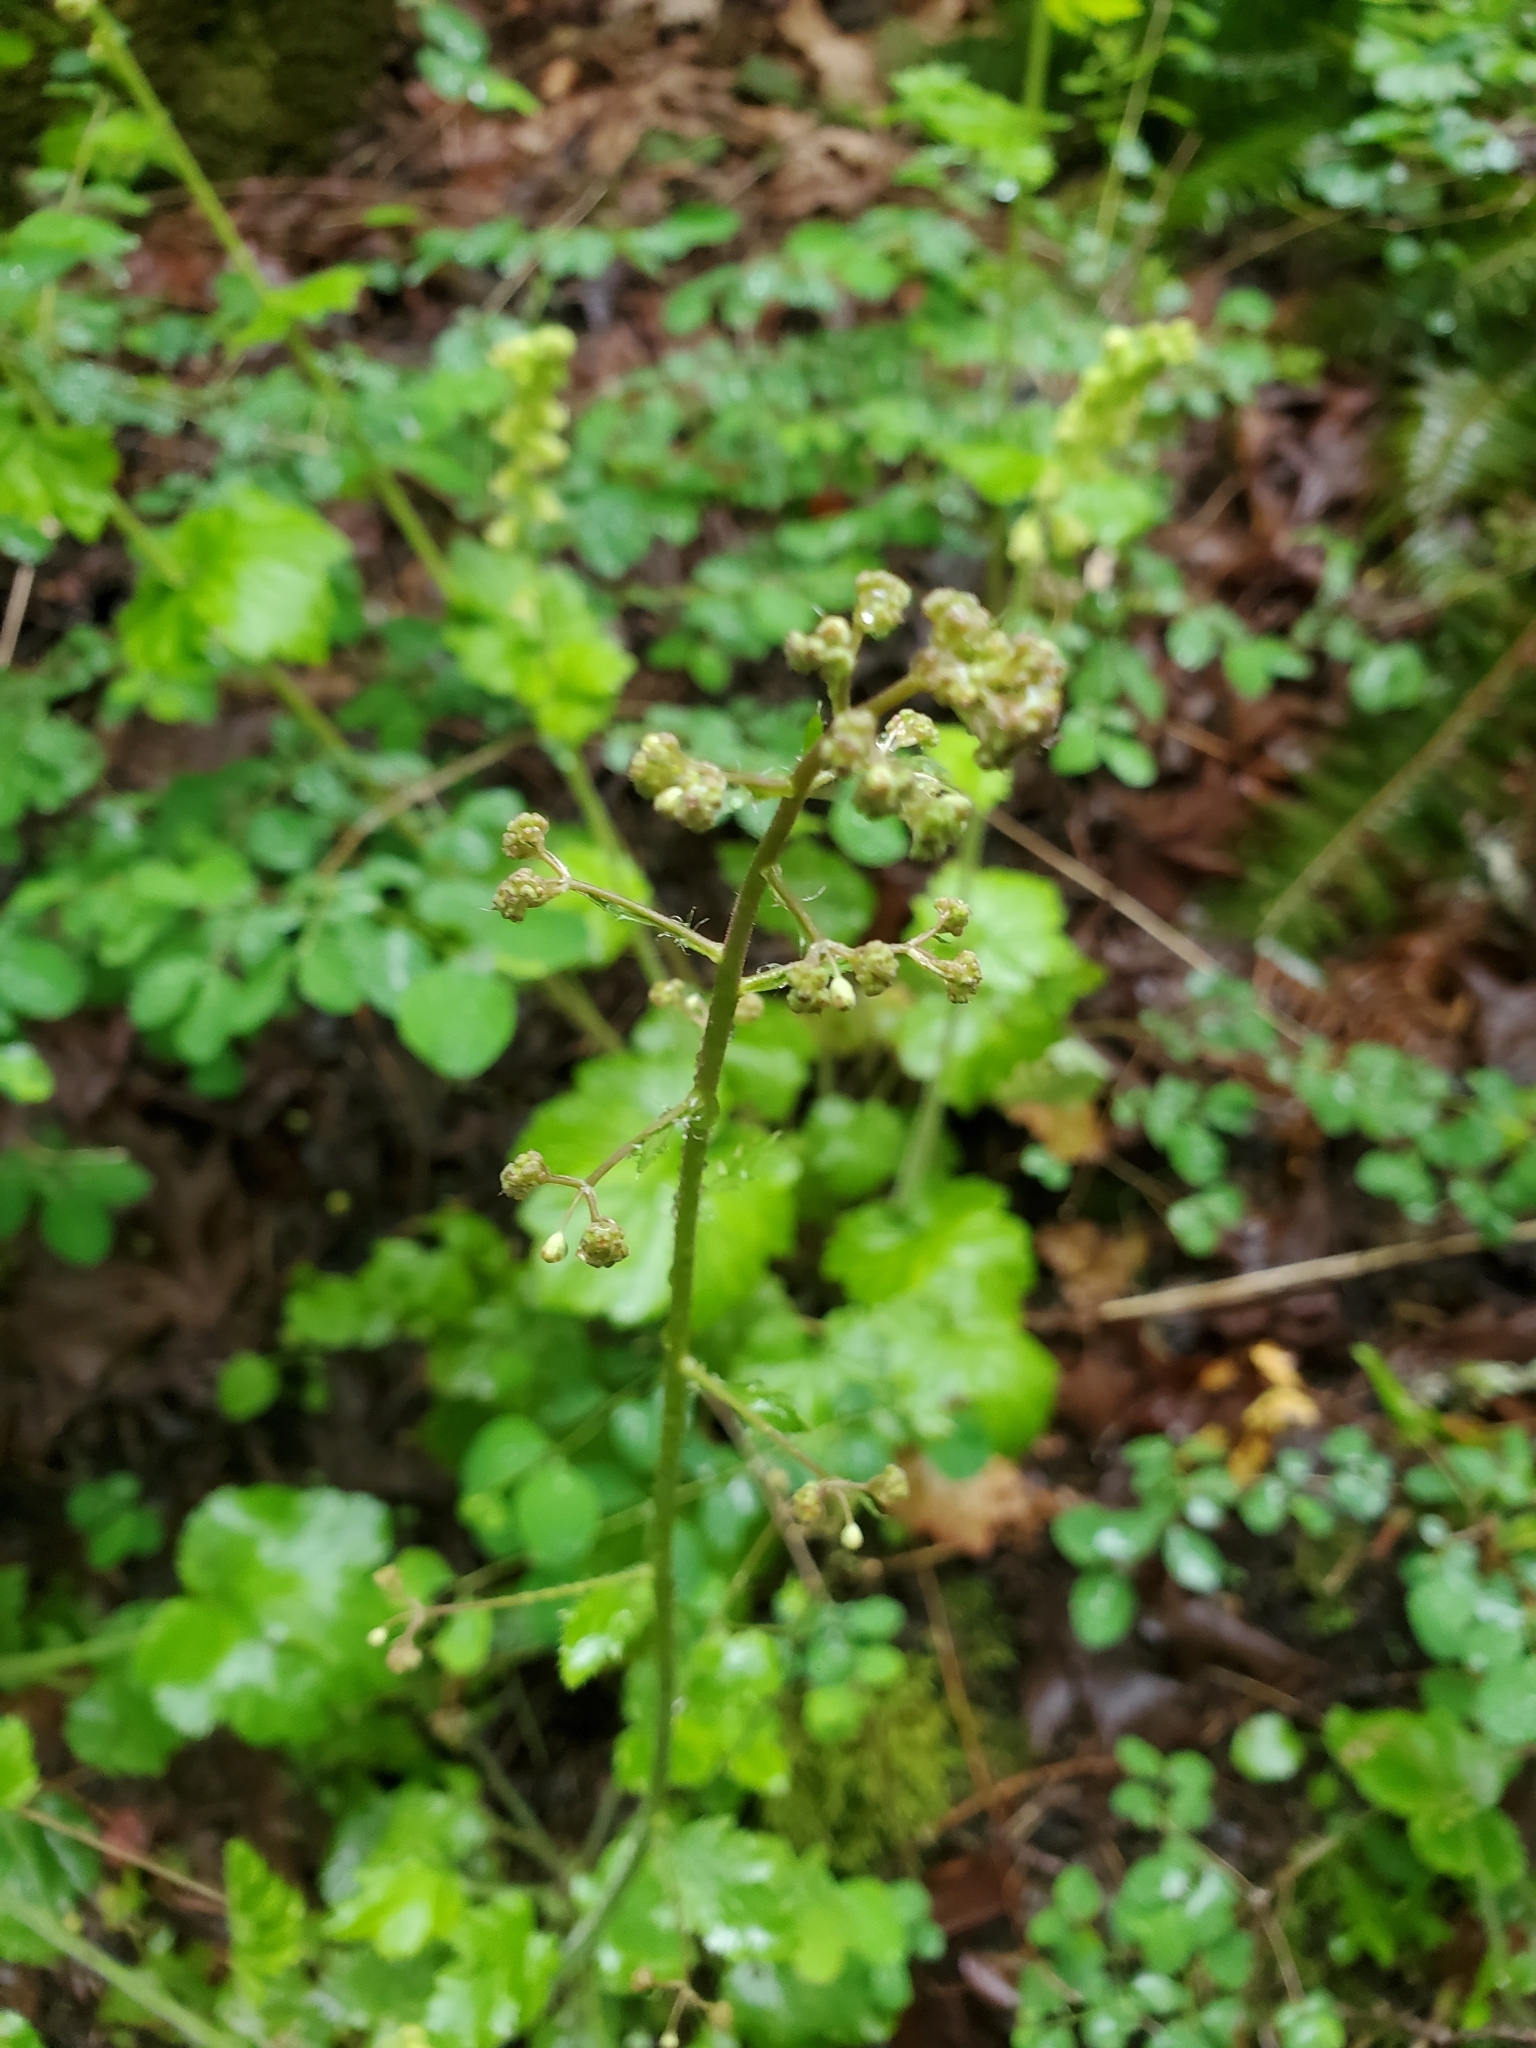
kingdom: Plantae
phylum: Tracheophyta
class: Magnoliopsida
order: Saxifragales
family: Saxifragaceae
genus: Heuchera
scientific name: Heuchera micrantha
